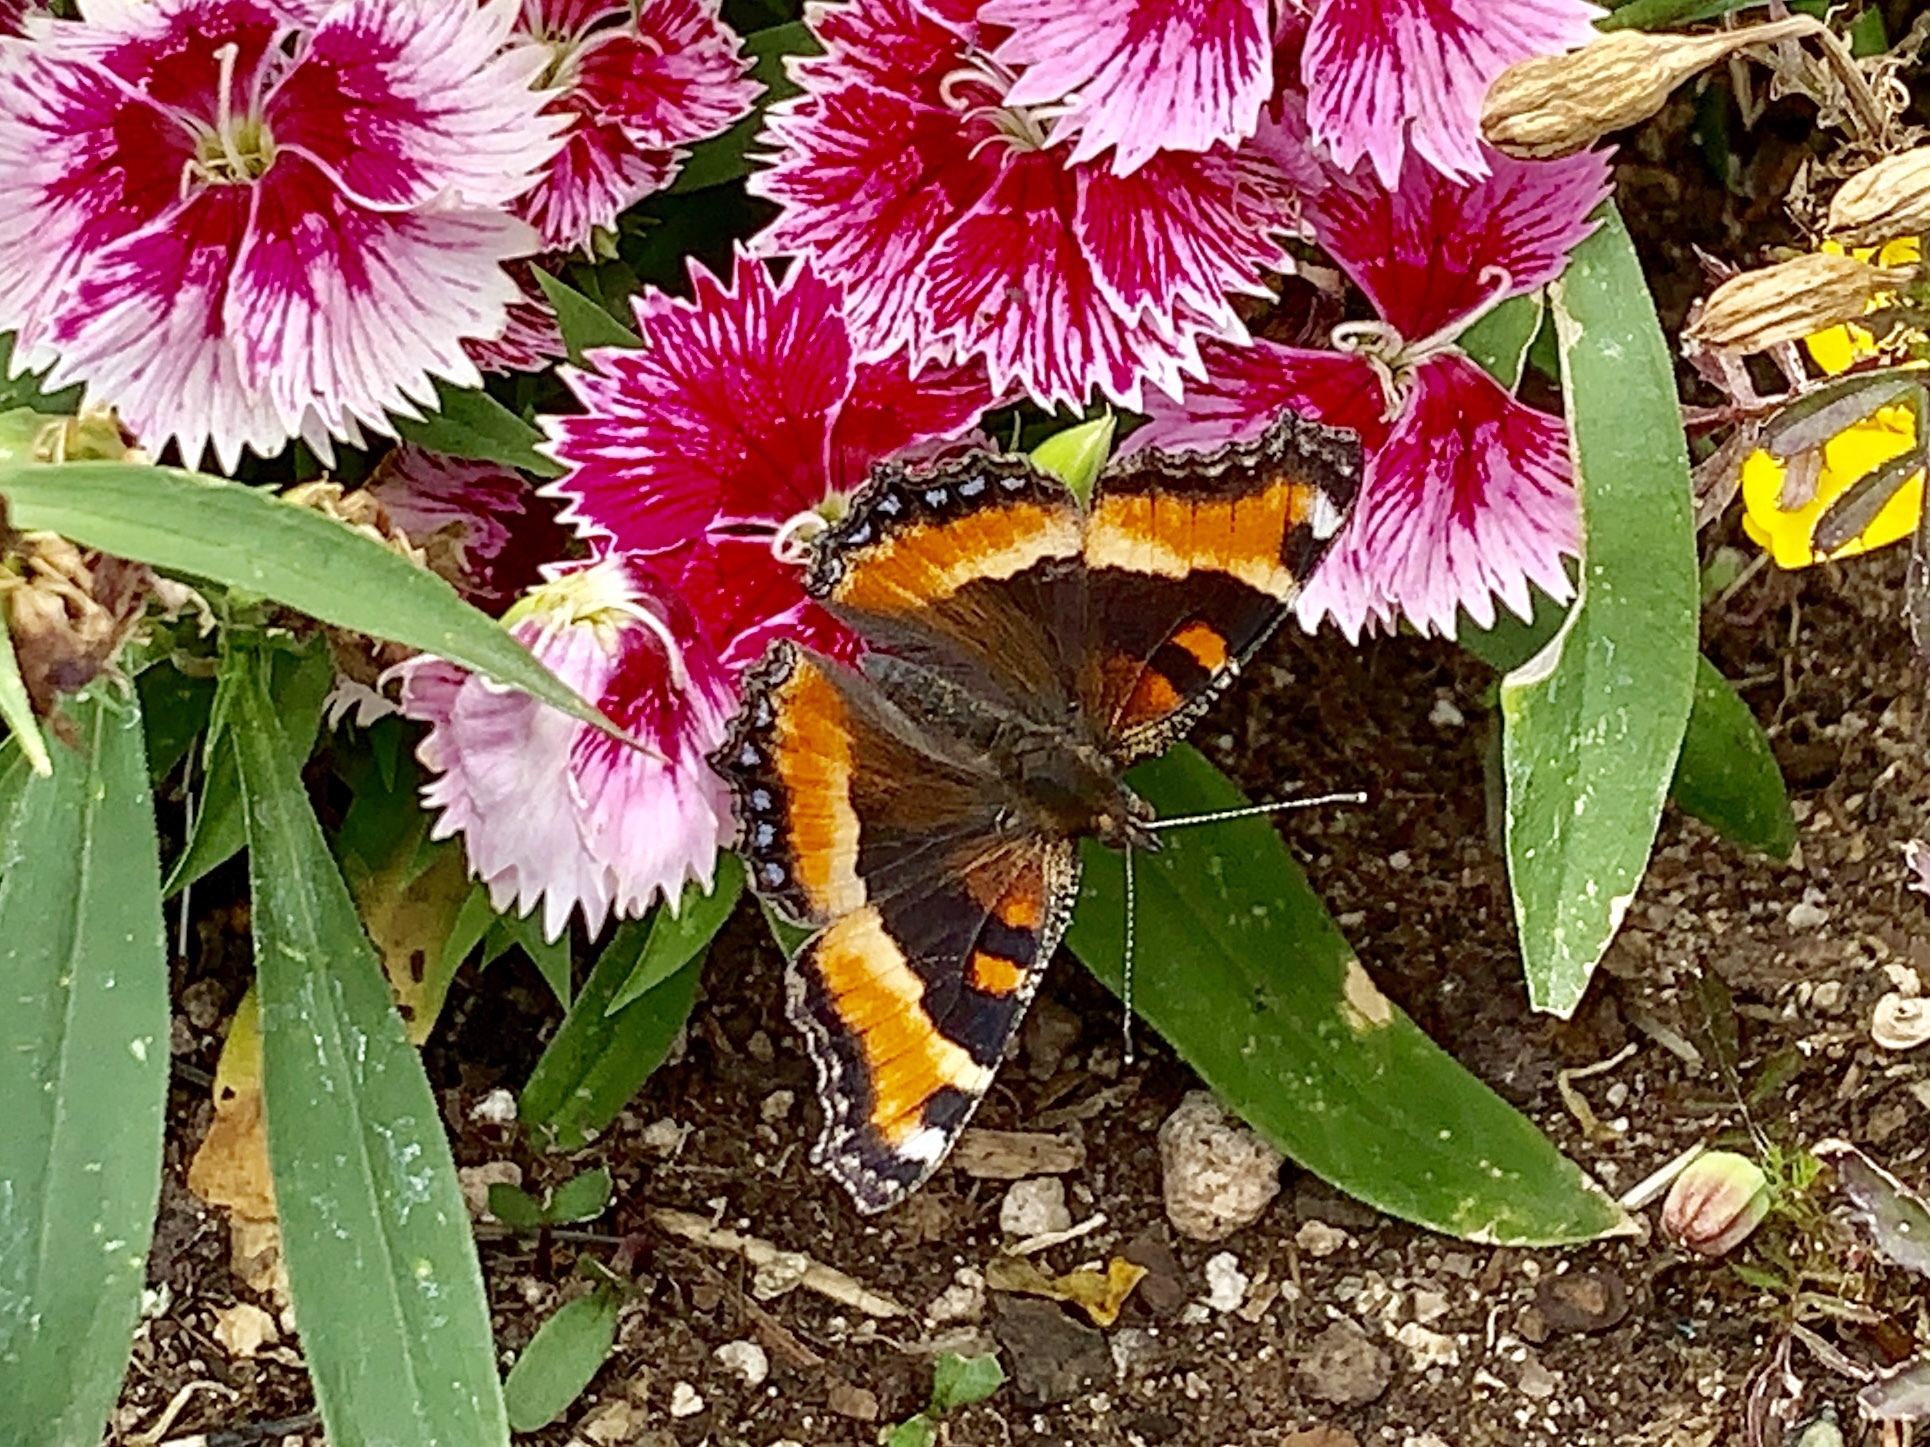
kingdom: Animalia
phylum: Arthropoda
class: Insecta
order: Lepidoptera
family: Nymphalidae
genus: Aglais
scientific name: Aglais milberti
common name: Milbert's tortoiseshell
